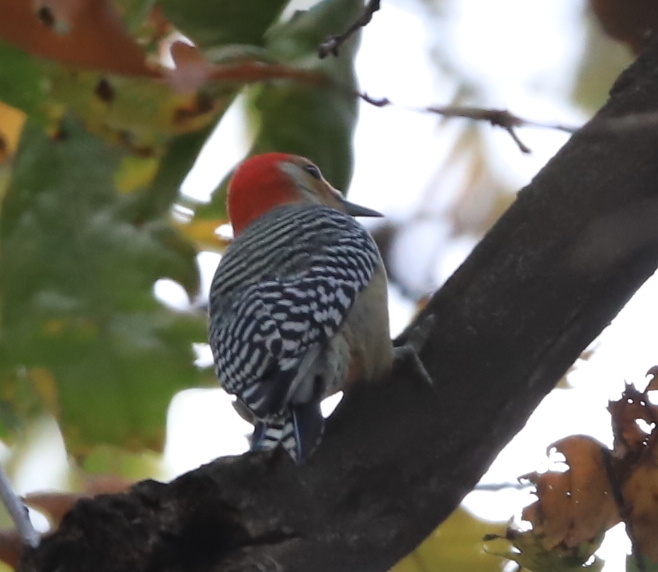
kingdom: Animalia
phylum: Chordata
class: Aves
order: Piciformes
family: Picidae
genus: Melanerpes
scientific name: Melanerpes carolinus
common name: Red-bellied woodpecker
